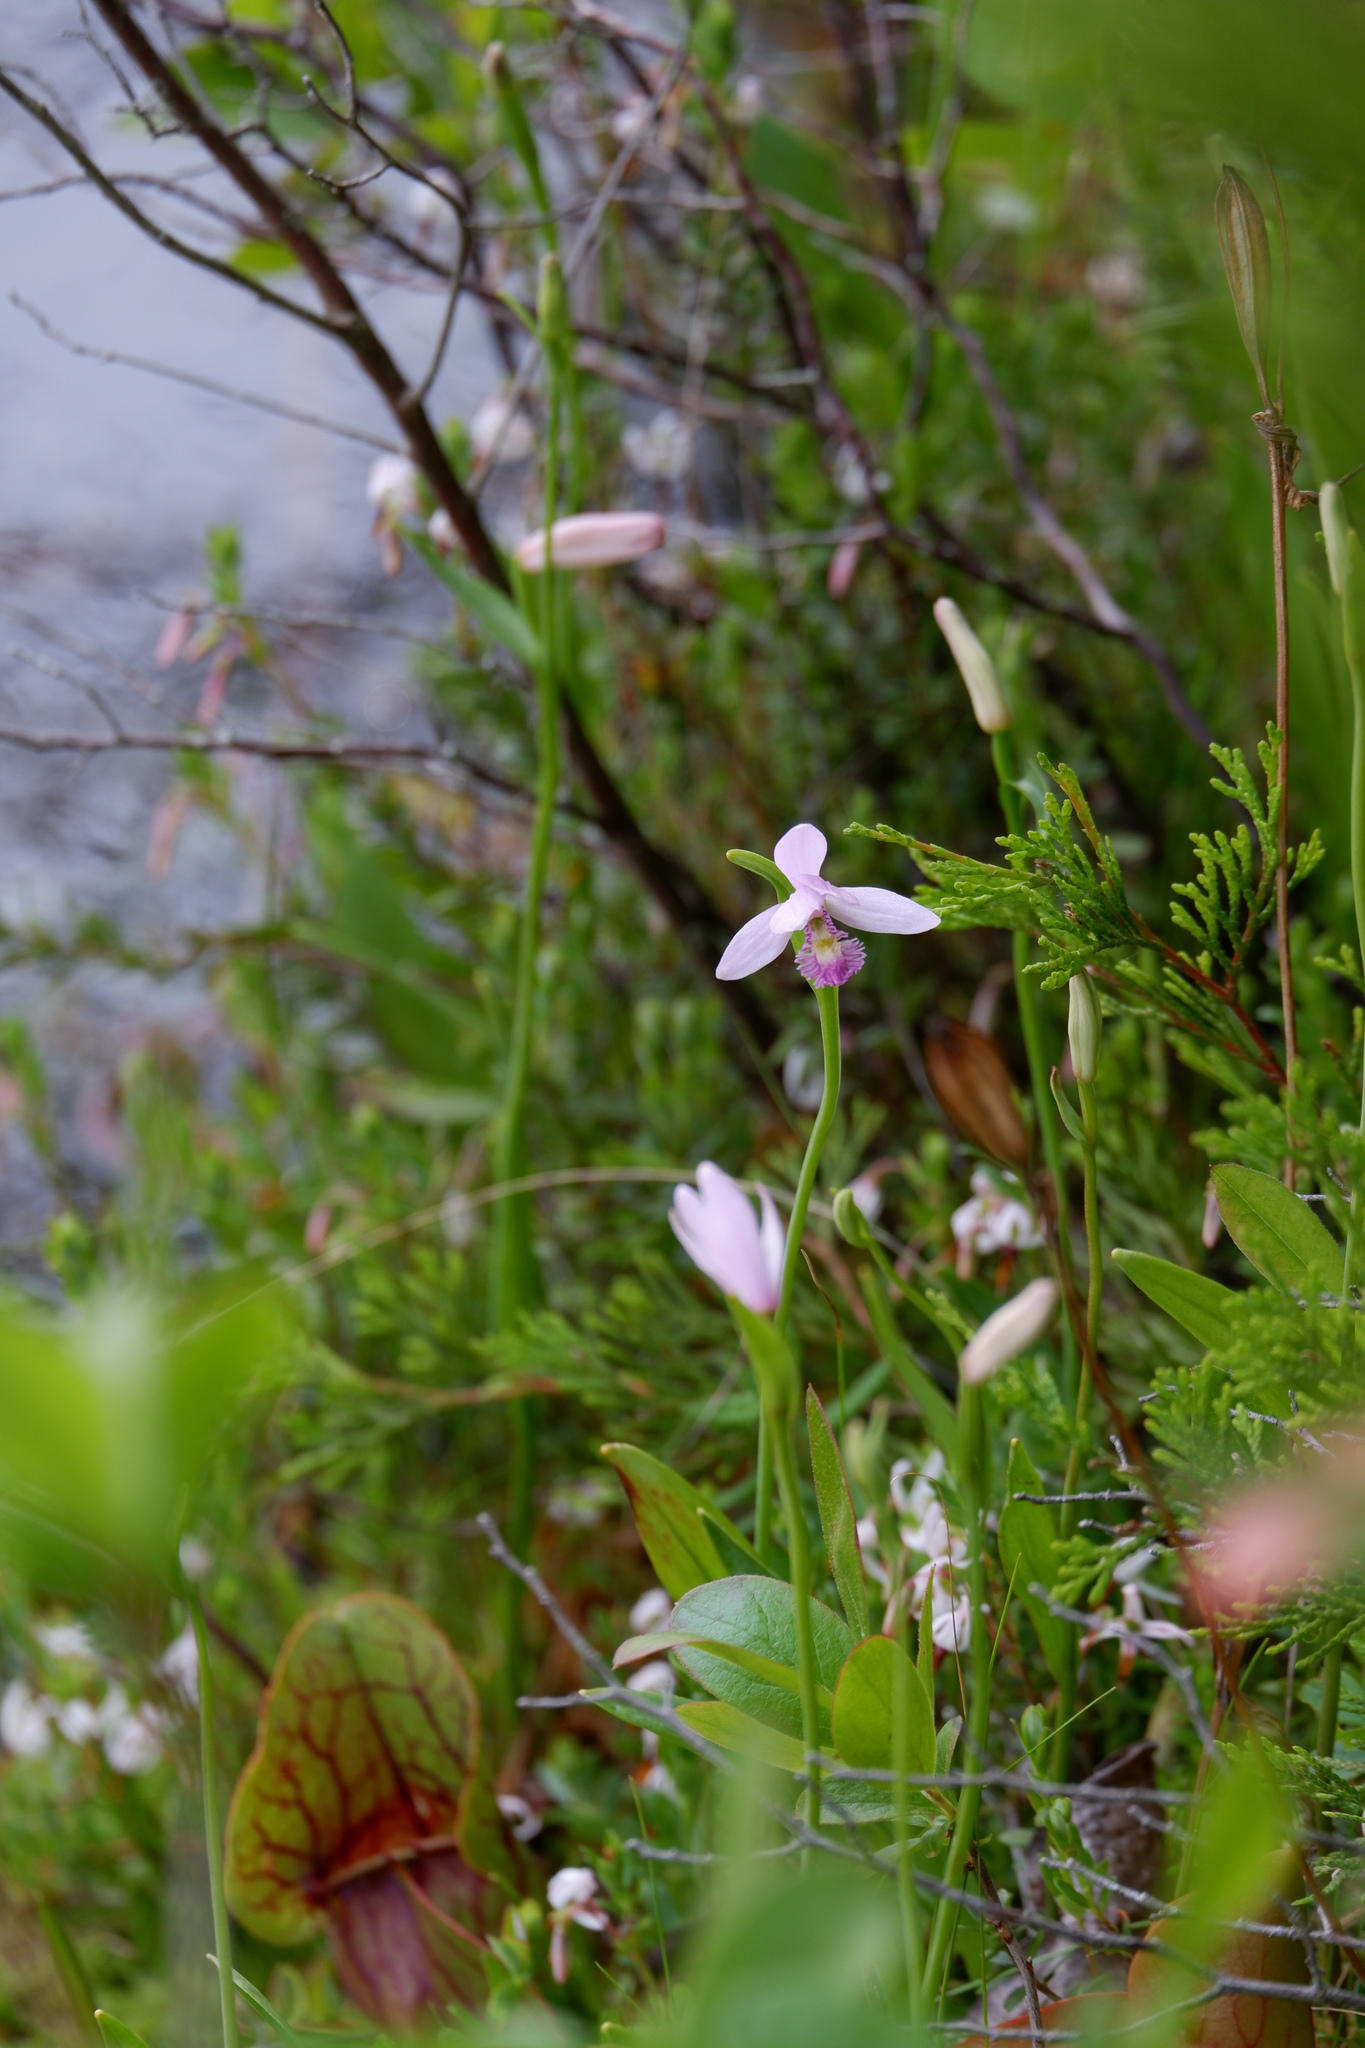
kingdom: Plantae
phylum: Tracheophyta
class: Liliopsida
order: Asparagales
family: Orchidaceae
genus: Pogonia
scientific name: Pogonia ophioglossoides
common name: Rose pogonia
